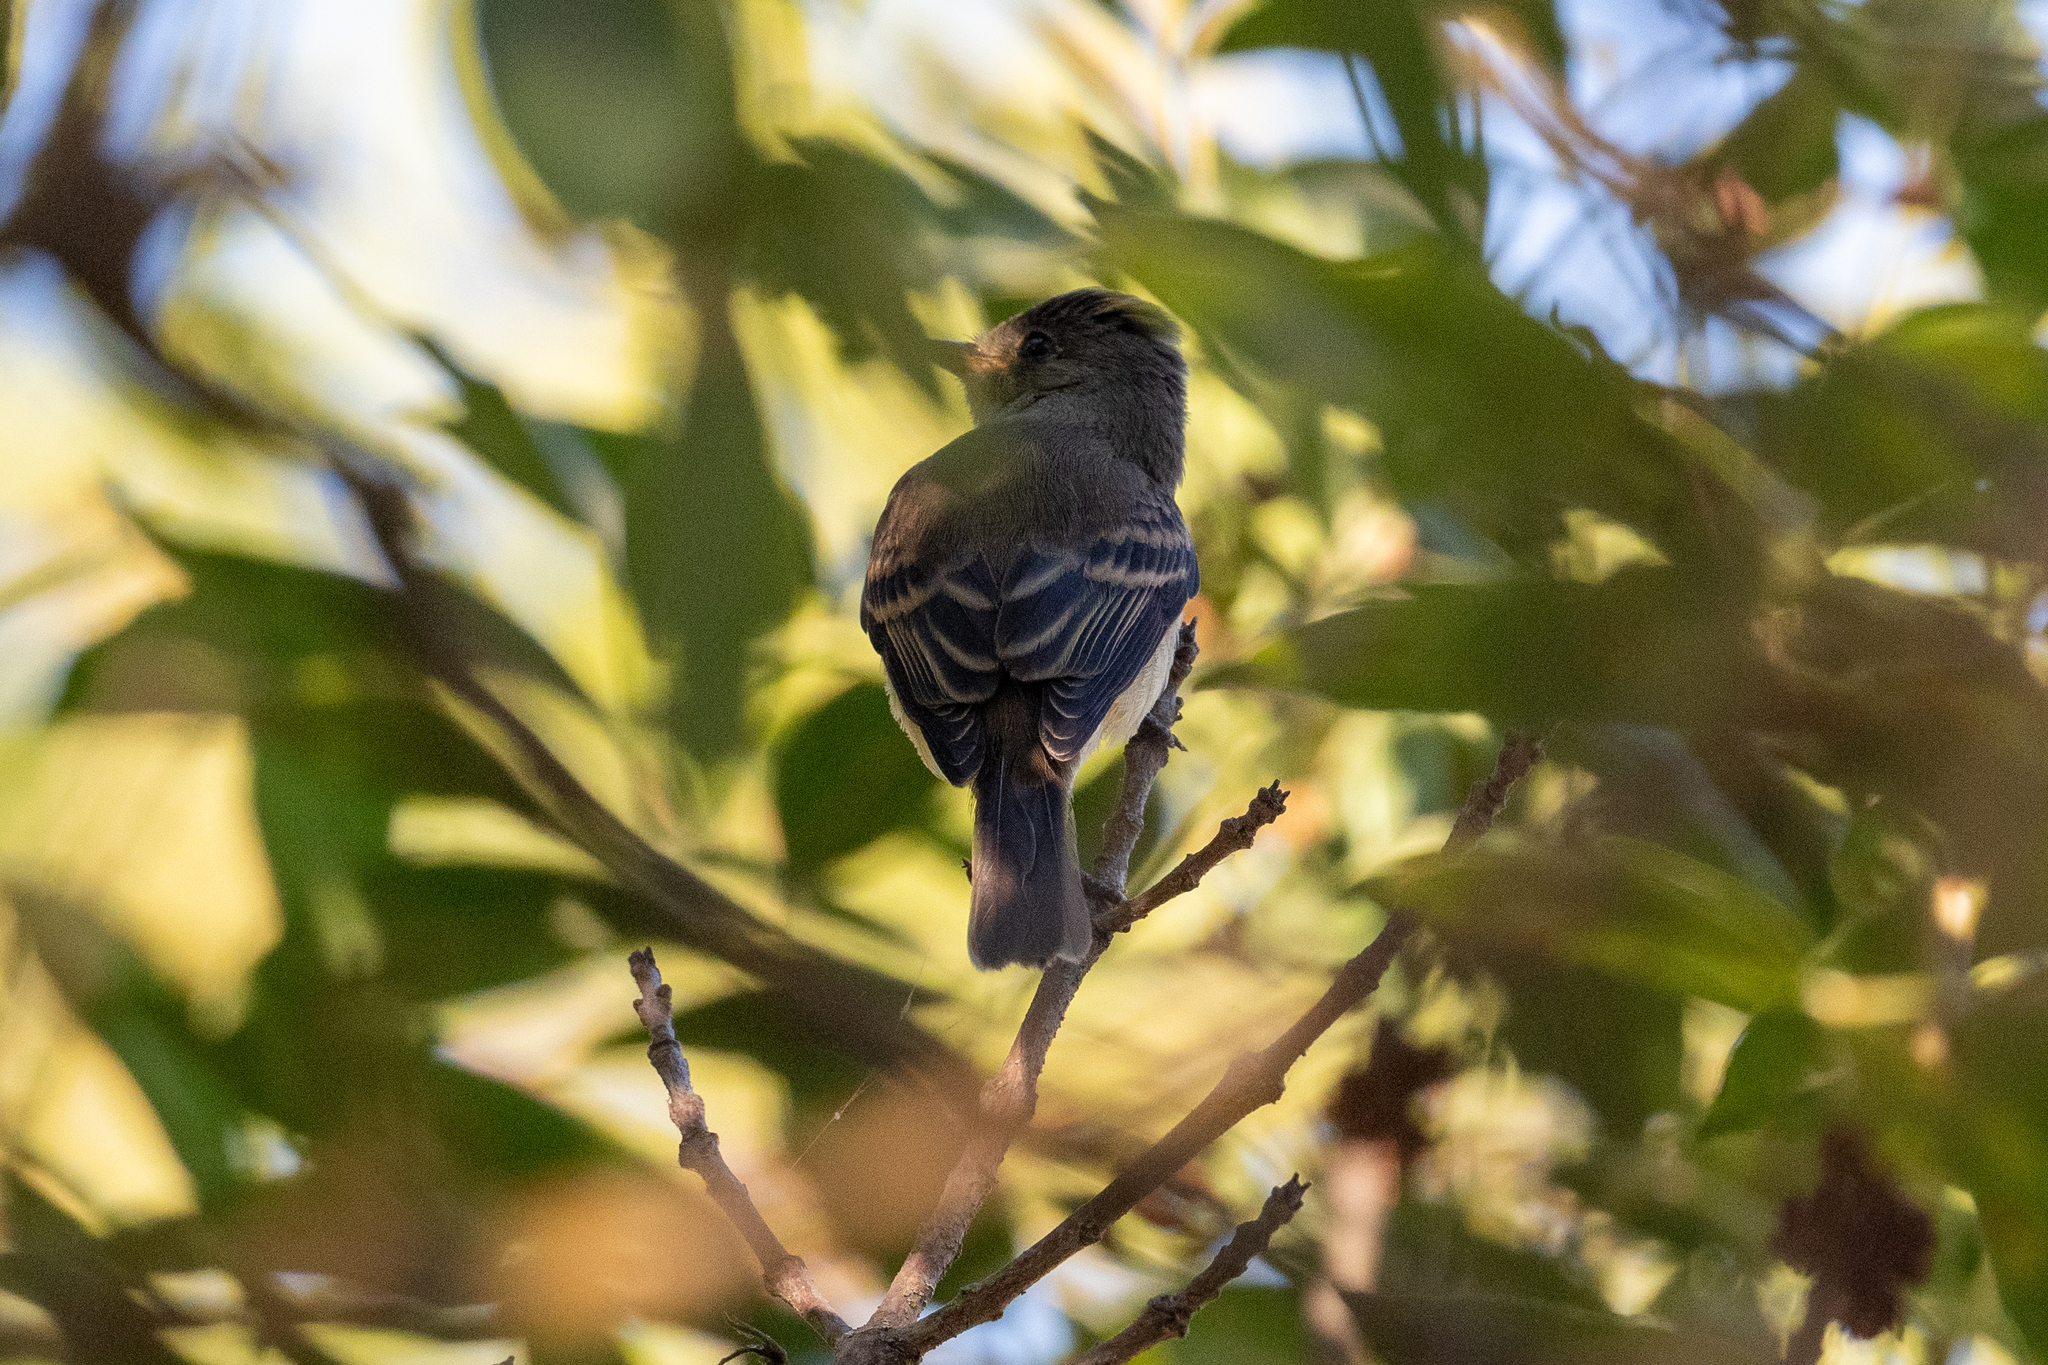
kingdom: Animalia
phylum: Chordata
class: Aves
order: Passeriformes
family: Tyrannidae
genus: Empidonax
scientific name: Empidonax traillii
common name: Willow flycatcher
